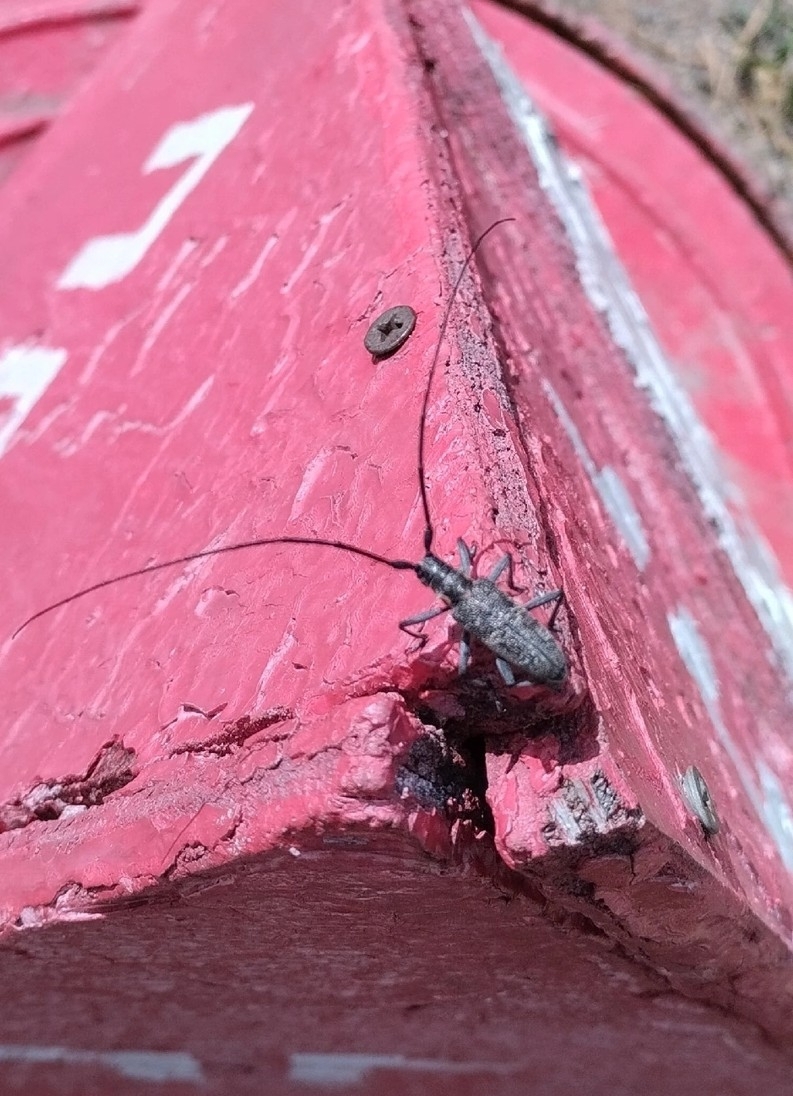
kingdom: Animalia
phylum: Arthropoda
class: Insecta
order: Coleoptera
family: Cerambycidae
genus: Monochamus
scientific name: Monochamus galloprovincialis
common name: Pine sawyer
